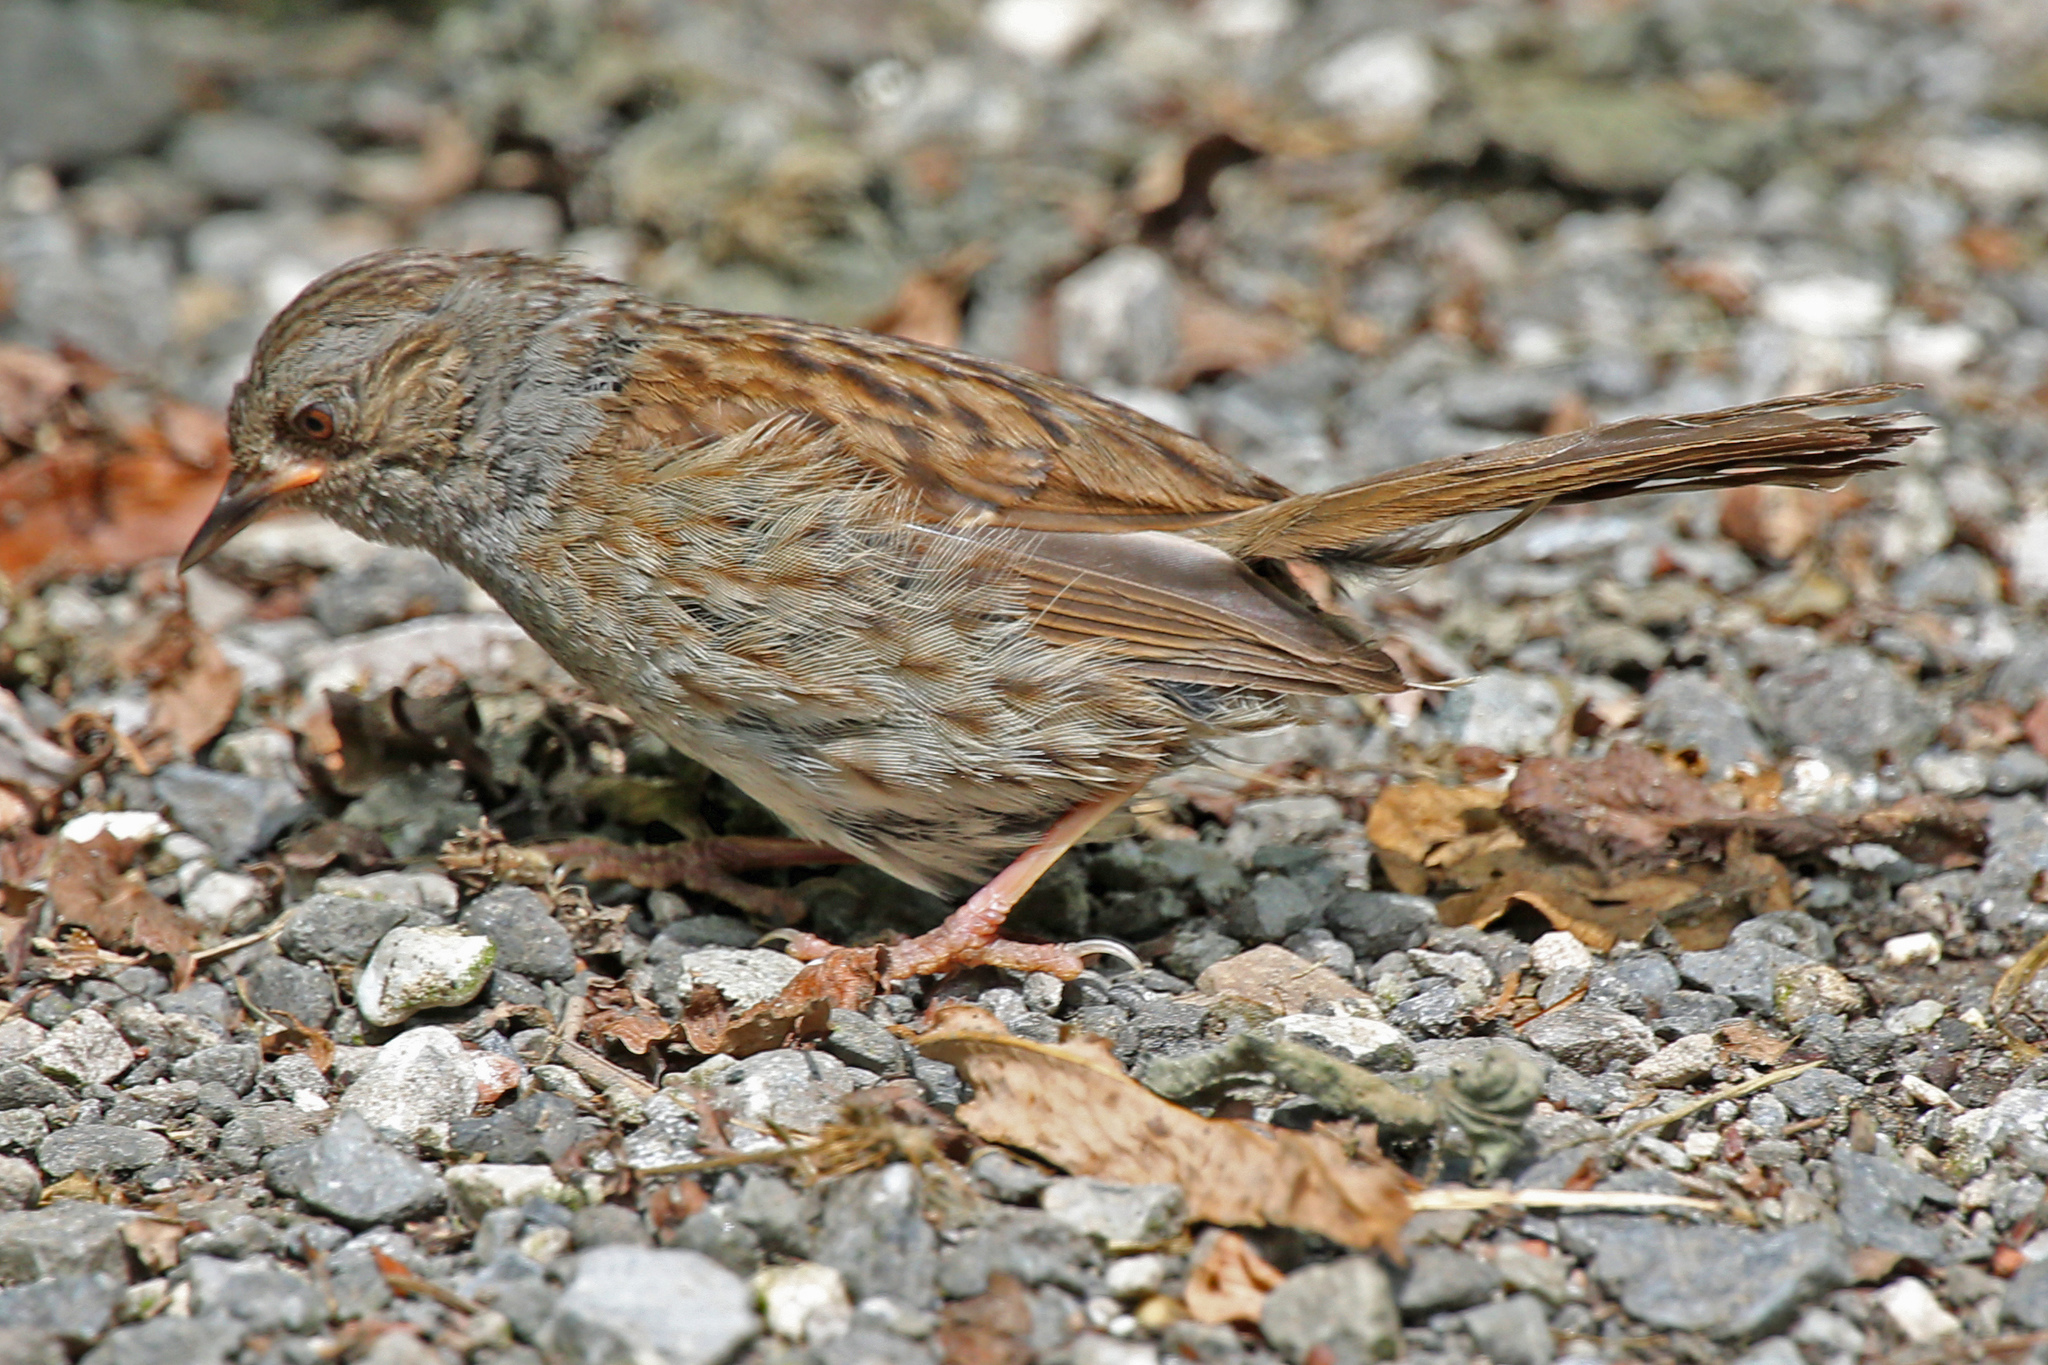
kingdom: Animalia
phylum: Chordata
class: Aves
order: Passeriformes
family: Prunellidae
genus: Prunella
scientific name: Prunella modularis
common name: Dunnock
